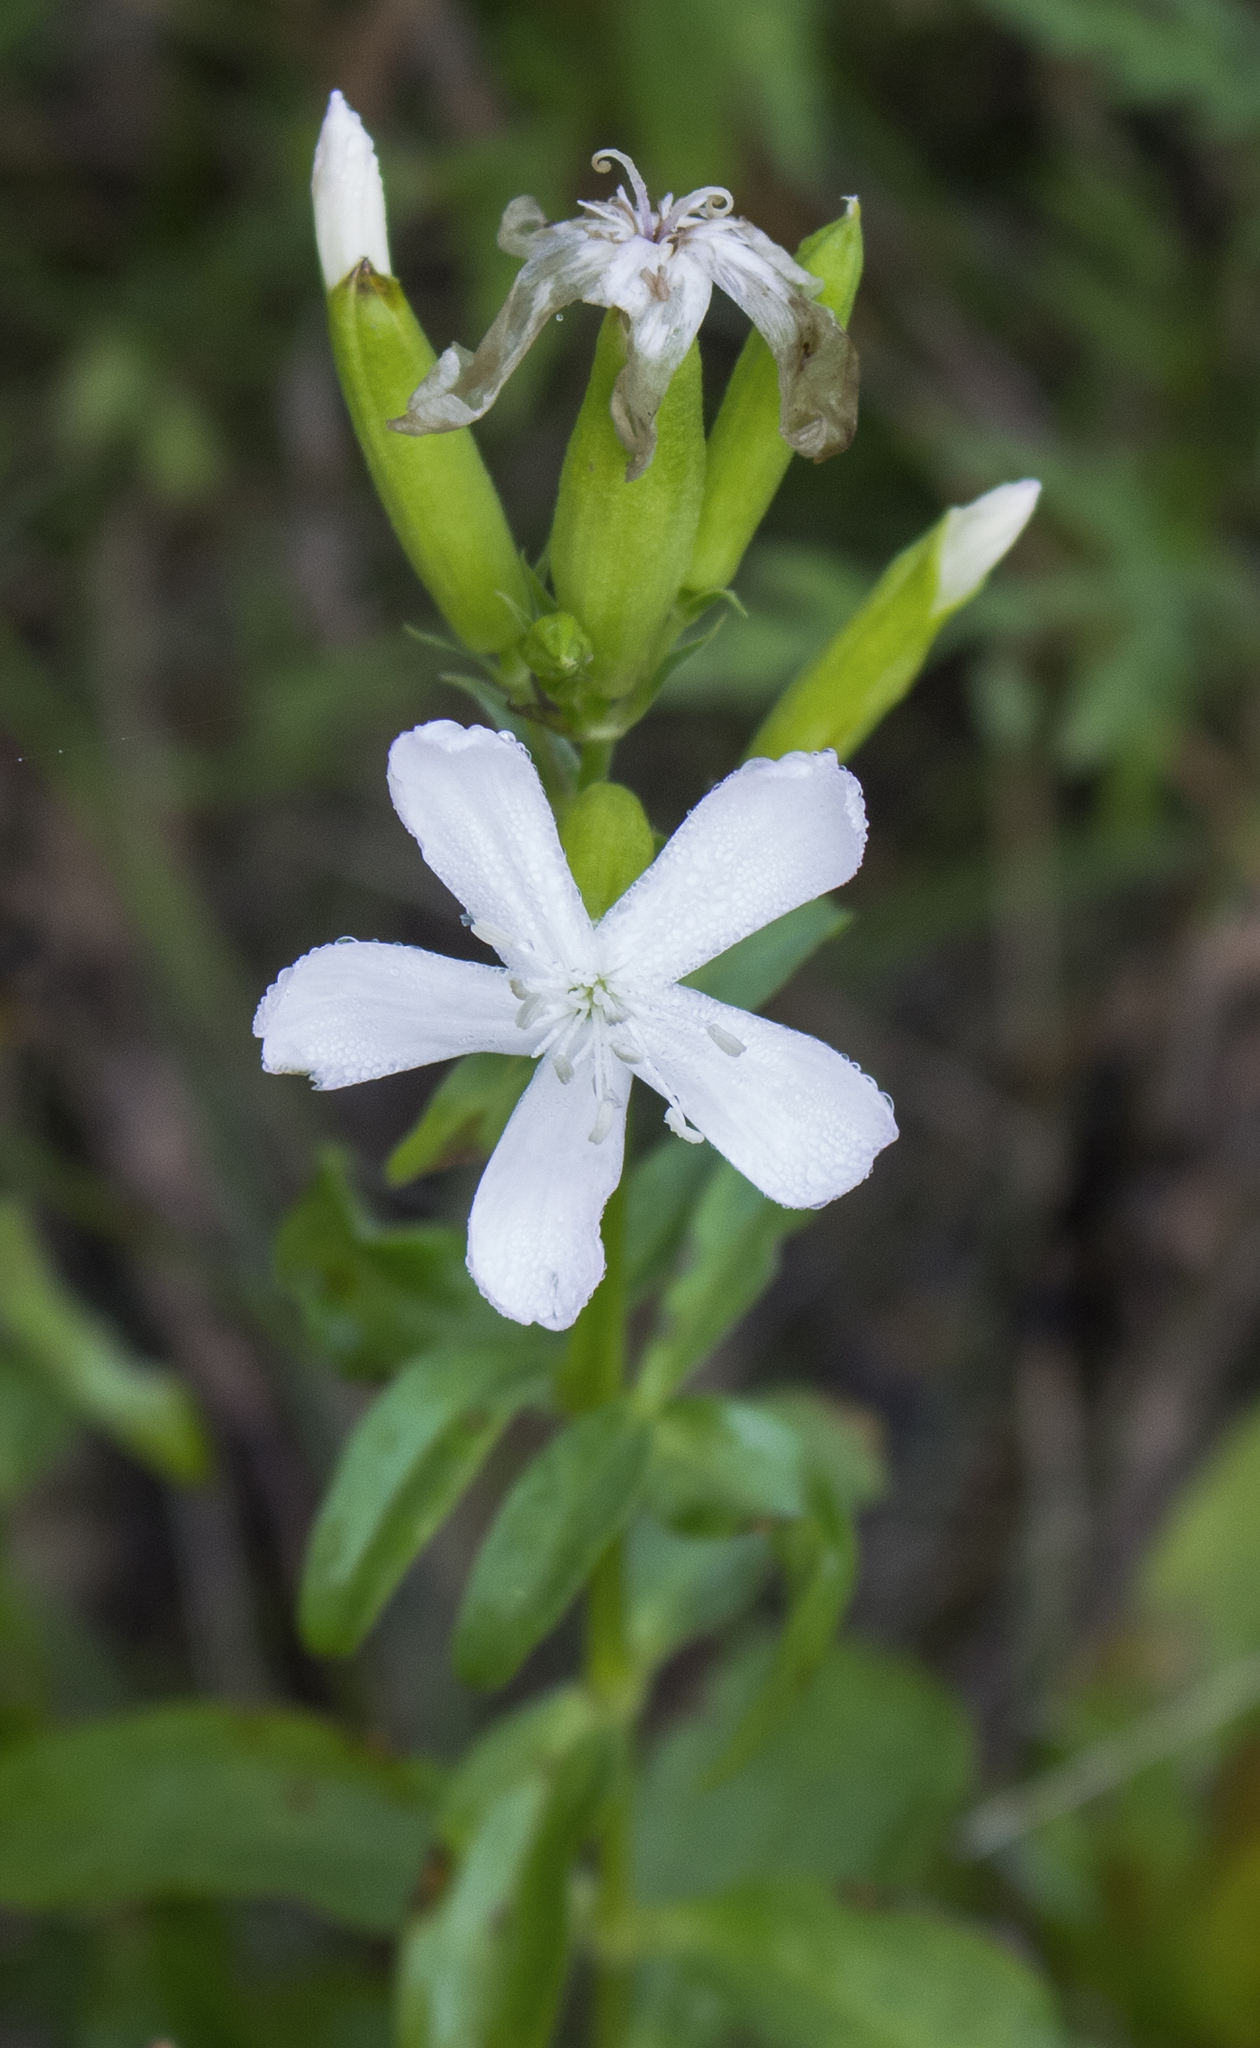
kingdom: Plantae
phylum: Tracheophyta
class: Magnoliopsida
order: Caryophyllales
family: Caryophyllaceae
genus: Saponaria
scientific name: Saponaria officinalis
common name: Soapwort
